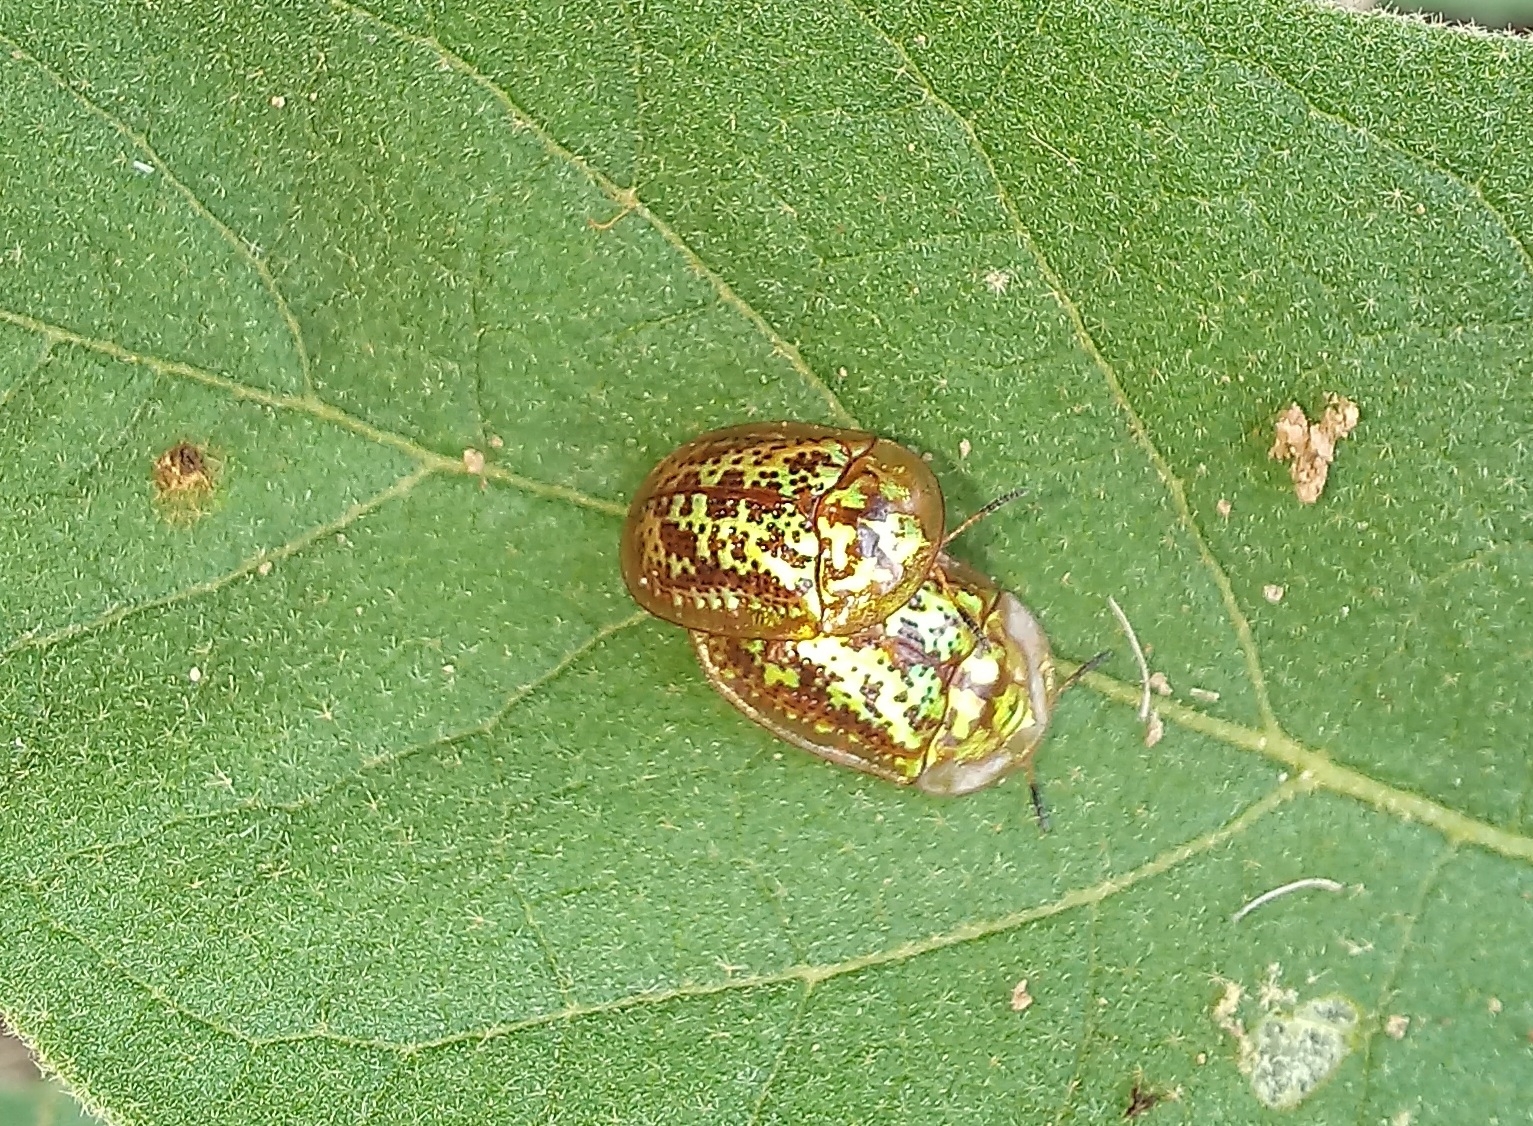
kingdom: Animalia
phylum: Arthropoda
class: Insecta
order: Coleoptera
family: Chrysomelidae
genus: Conchyloctenia
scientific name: Conchyloctenia hybrida
